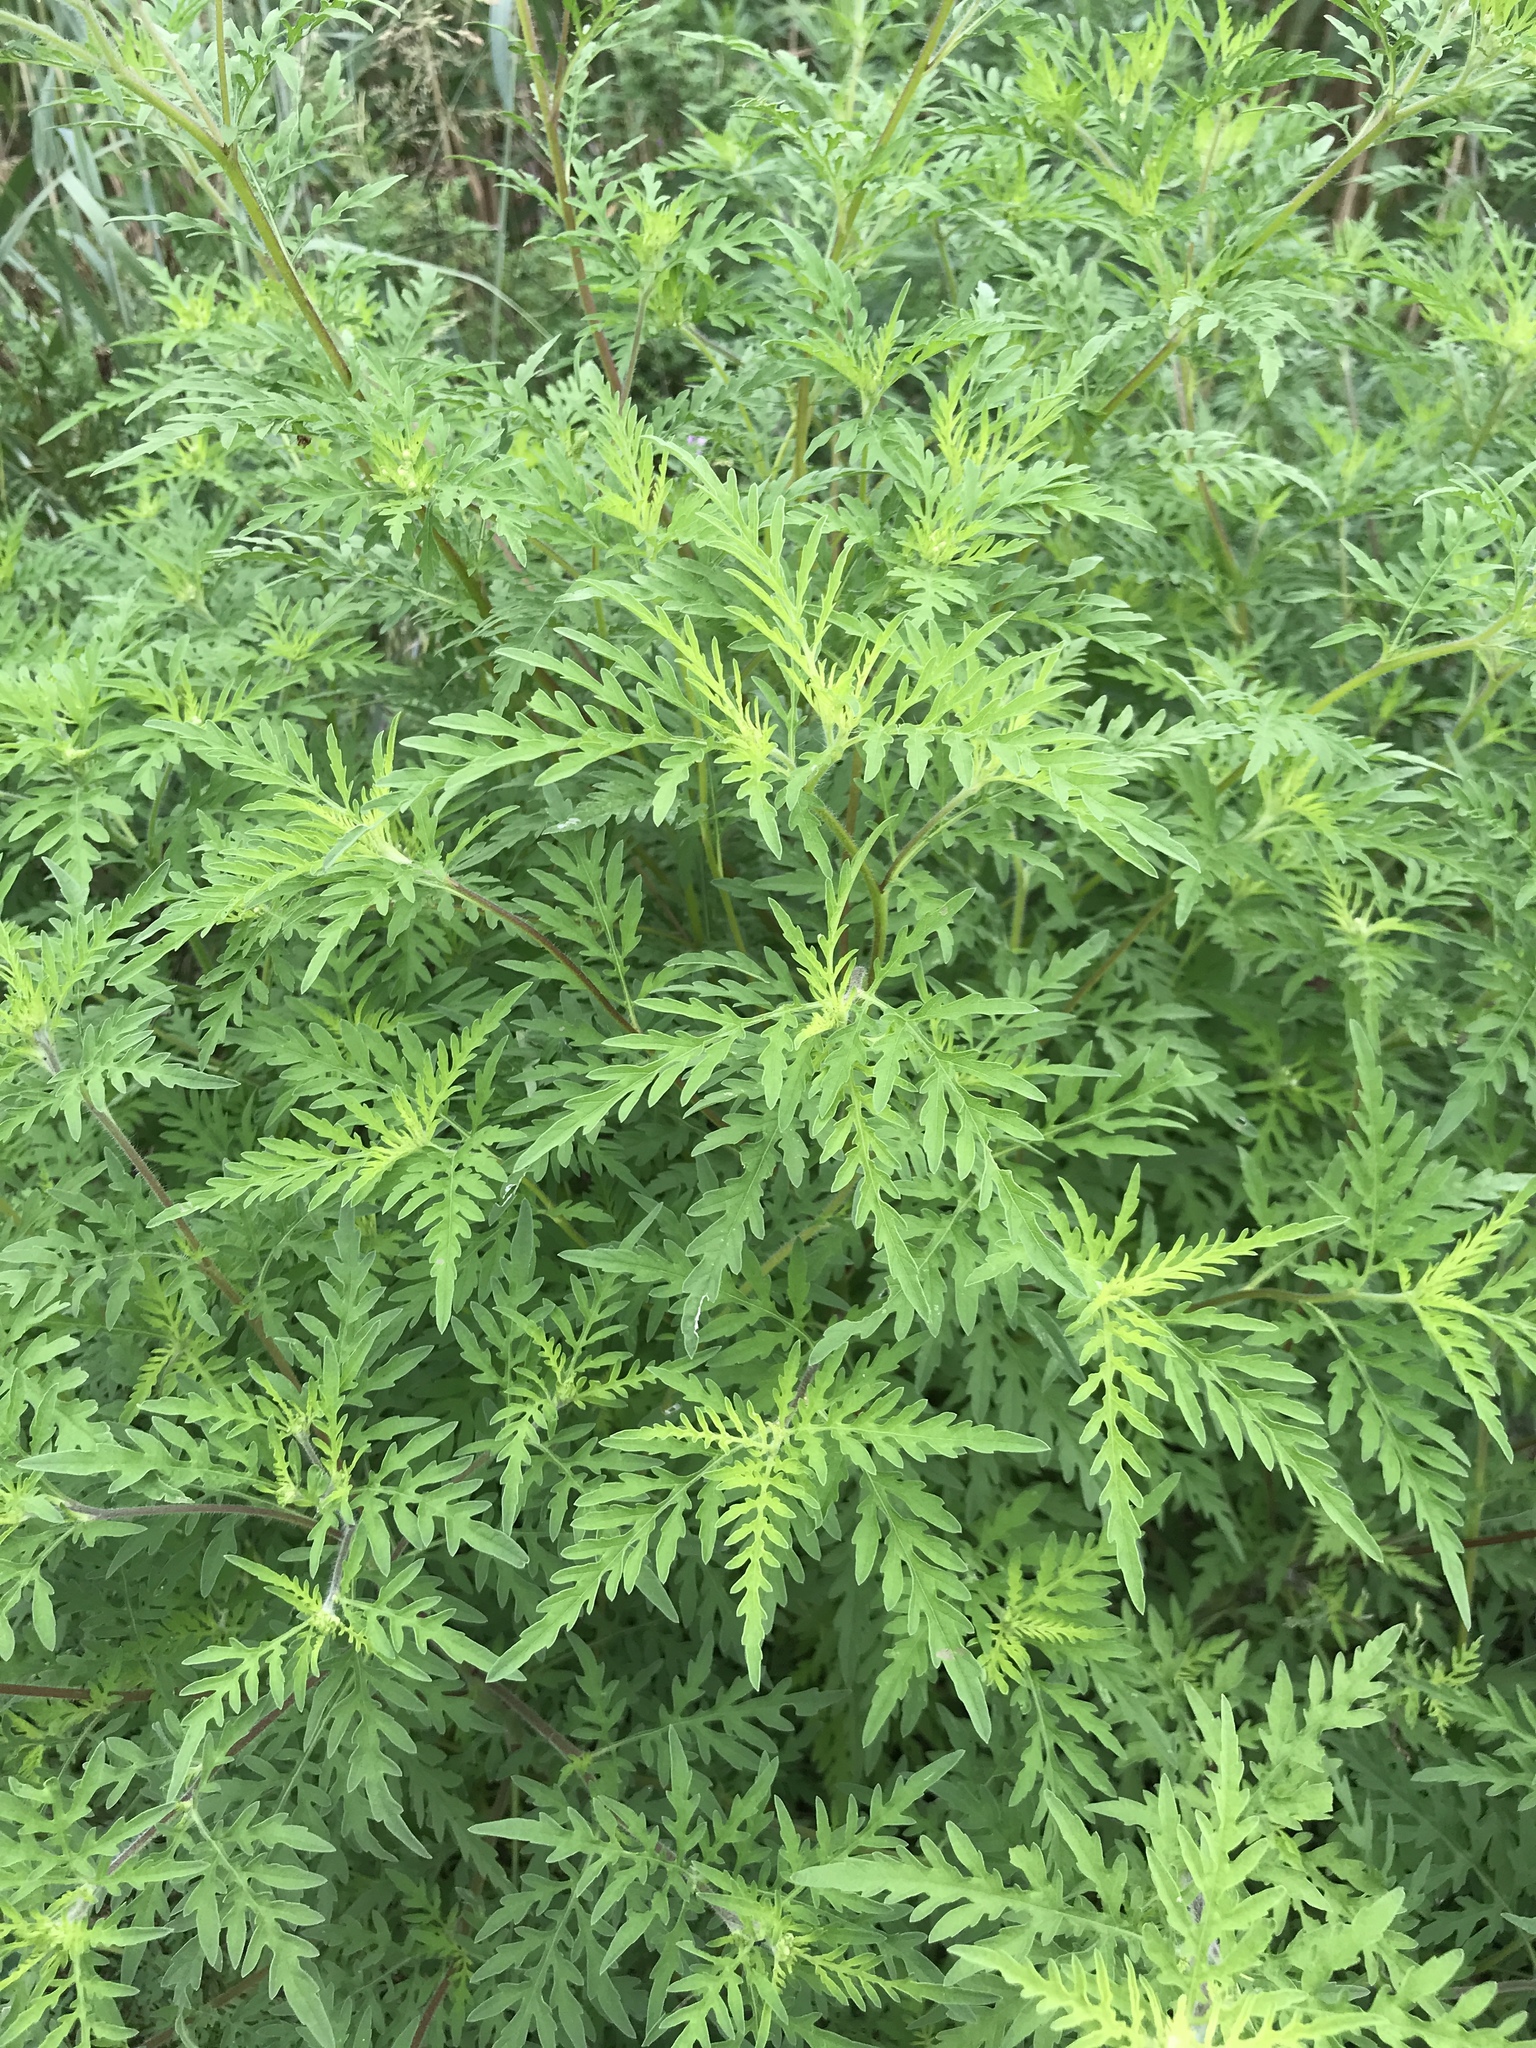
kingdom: Plantae
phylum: Tracheophyta
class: Magnoliopsida
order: Asterales
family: Asteraceae
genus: Ambrosia
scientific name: Ambrosia artemisiifolia
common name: Annual ragweed
